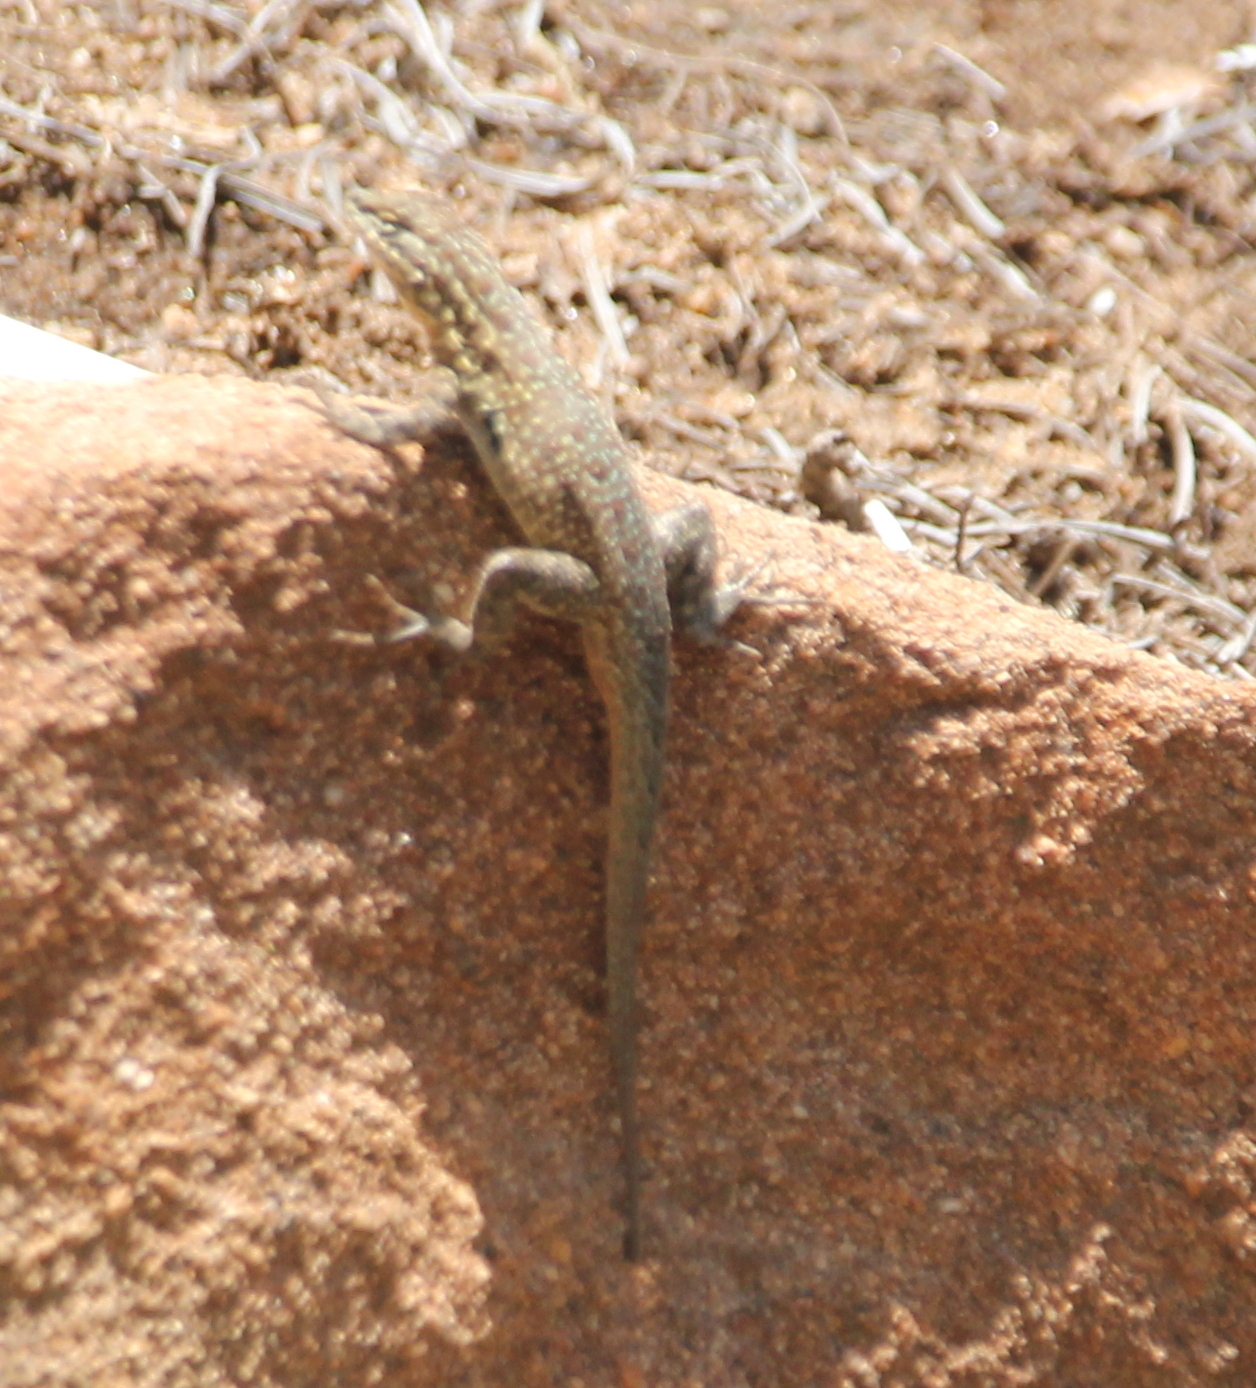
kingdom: Animalia
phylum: Chordata
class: Squamata
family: Phrynosomatidae
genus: Uta
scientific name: Uta stansburiana
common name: Side-blotched lizard
